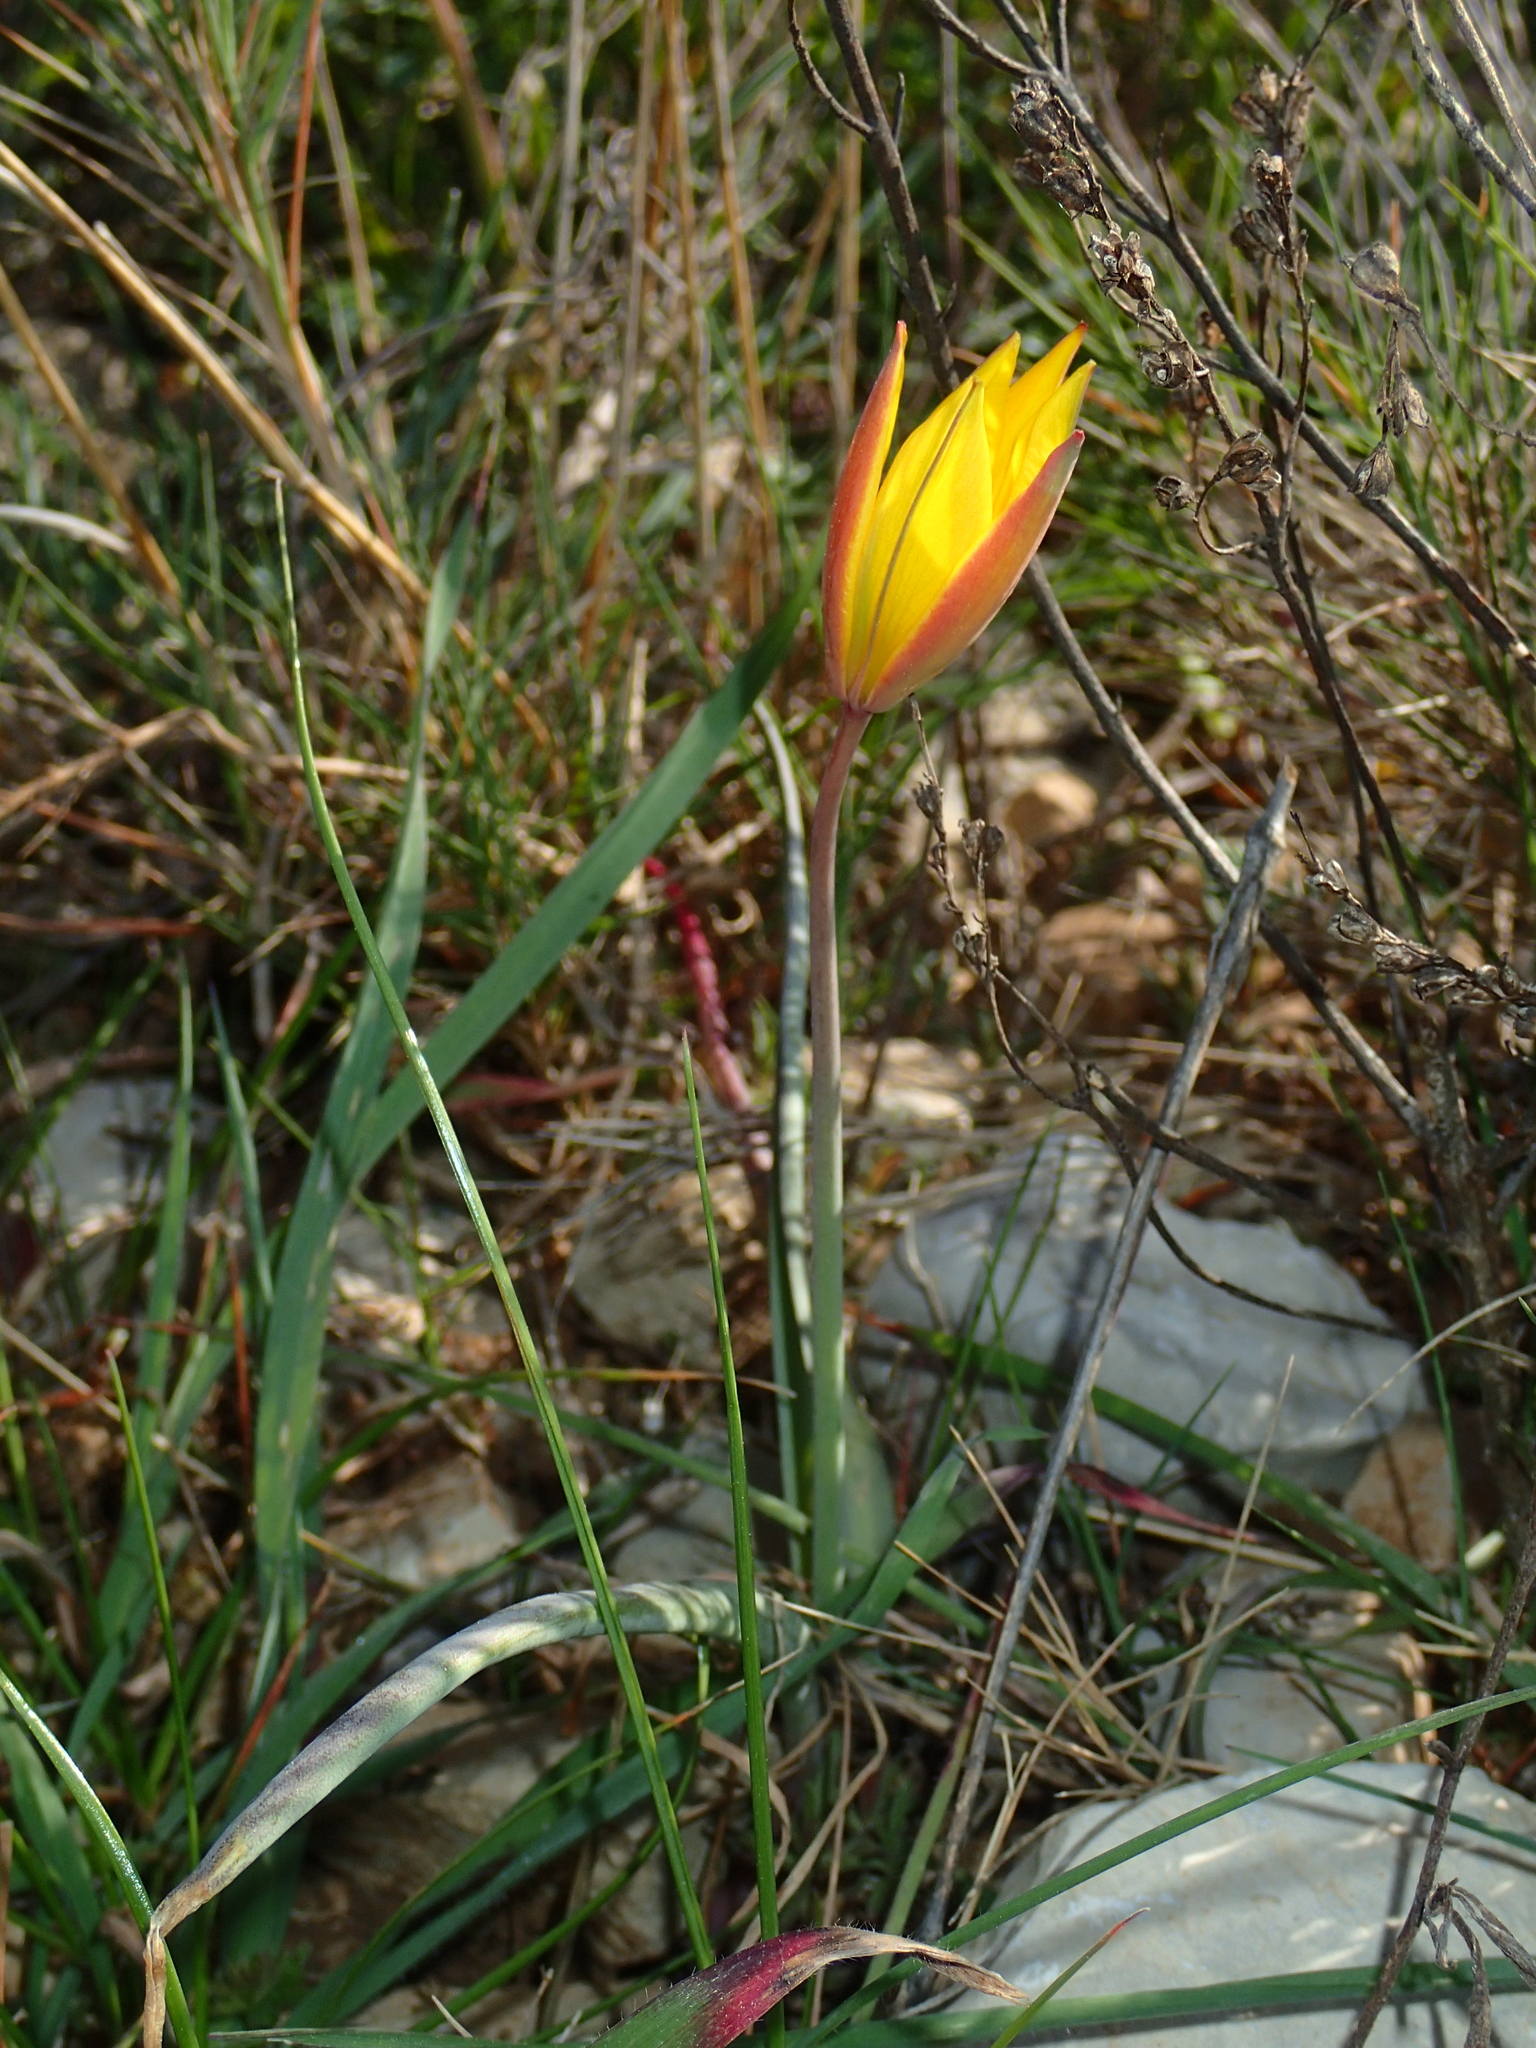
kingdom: Plantae
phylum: Tracheophyta
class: Liliopsida
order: Liliales
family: Liliaceae
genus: Tulipa
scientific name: Tulipa sylvestris
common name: Wild tulip
